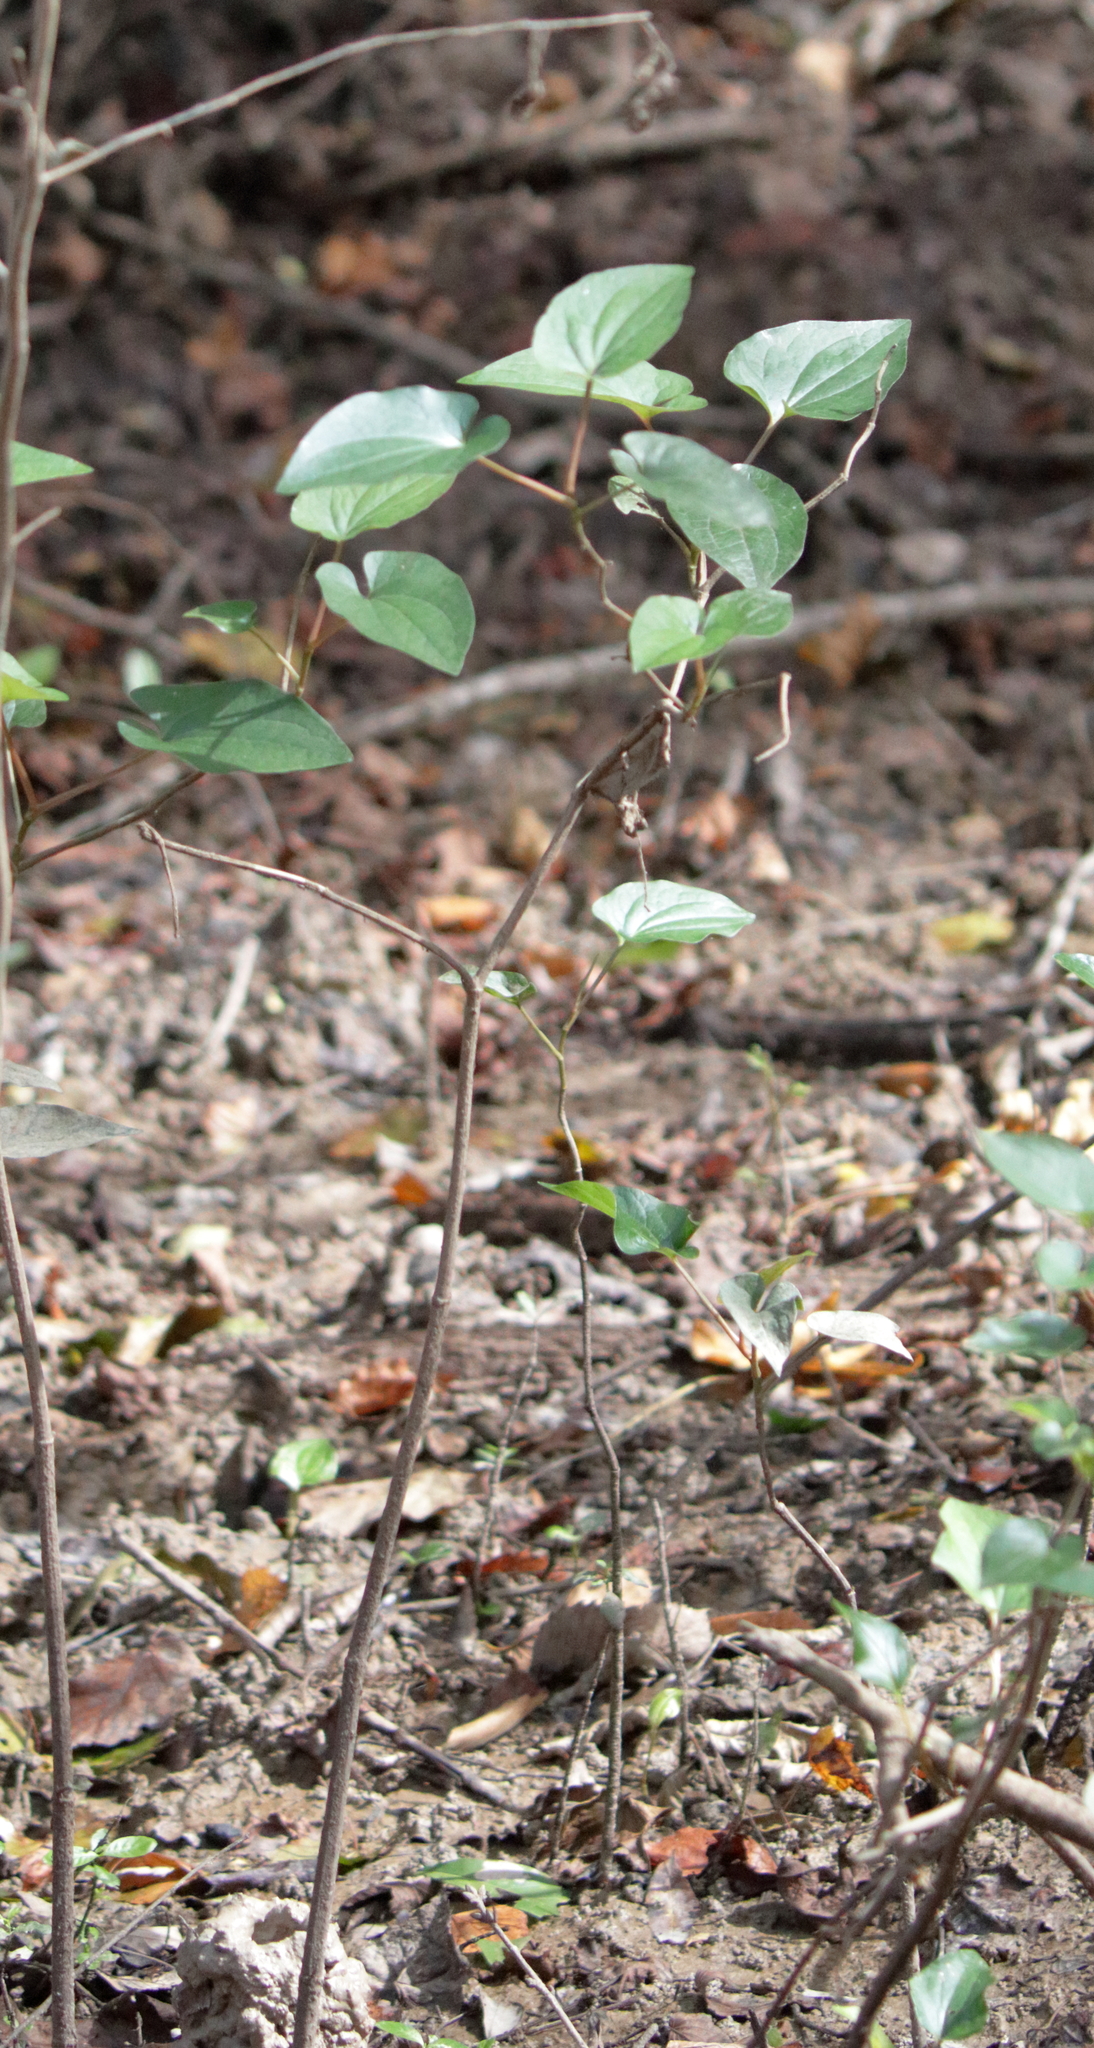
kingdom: Plantae
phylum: Tracheophyta
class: Magnoliopsida
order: Piperales
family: Saururaceae
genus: Saururus
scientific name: Saururus cernuus
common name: Lizard's-tail
